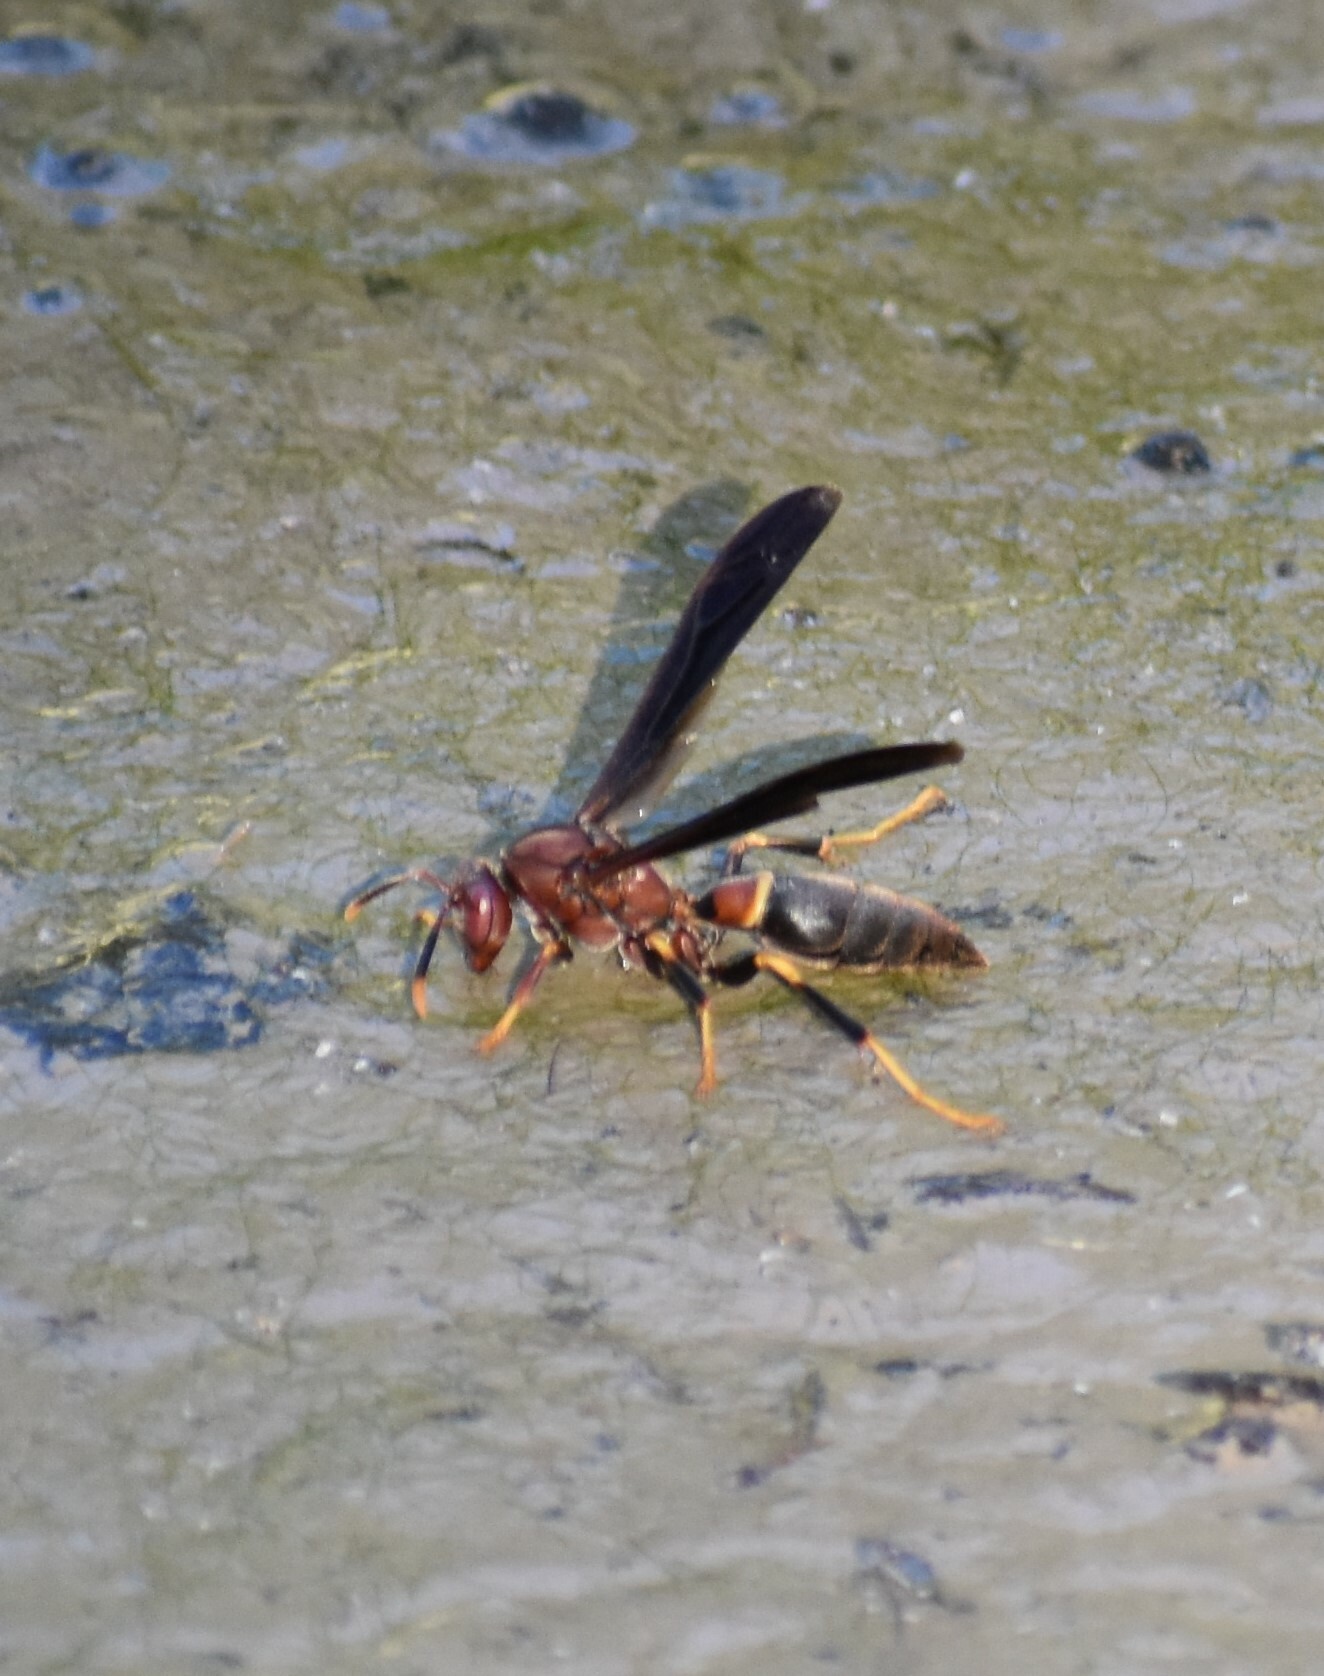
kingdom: Animalia
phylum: Arthropoda
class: Insecta
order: Hymenoptera
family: Eumenidae
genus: Polistes
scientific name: Polistes annularis
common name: Ringed paper wasp
